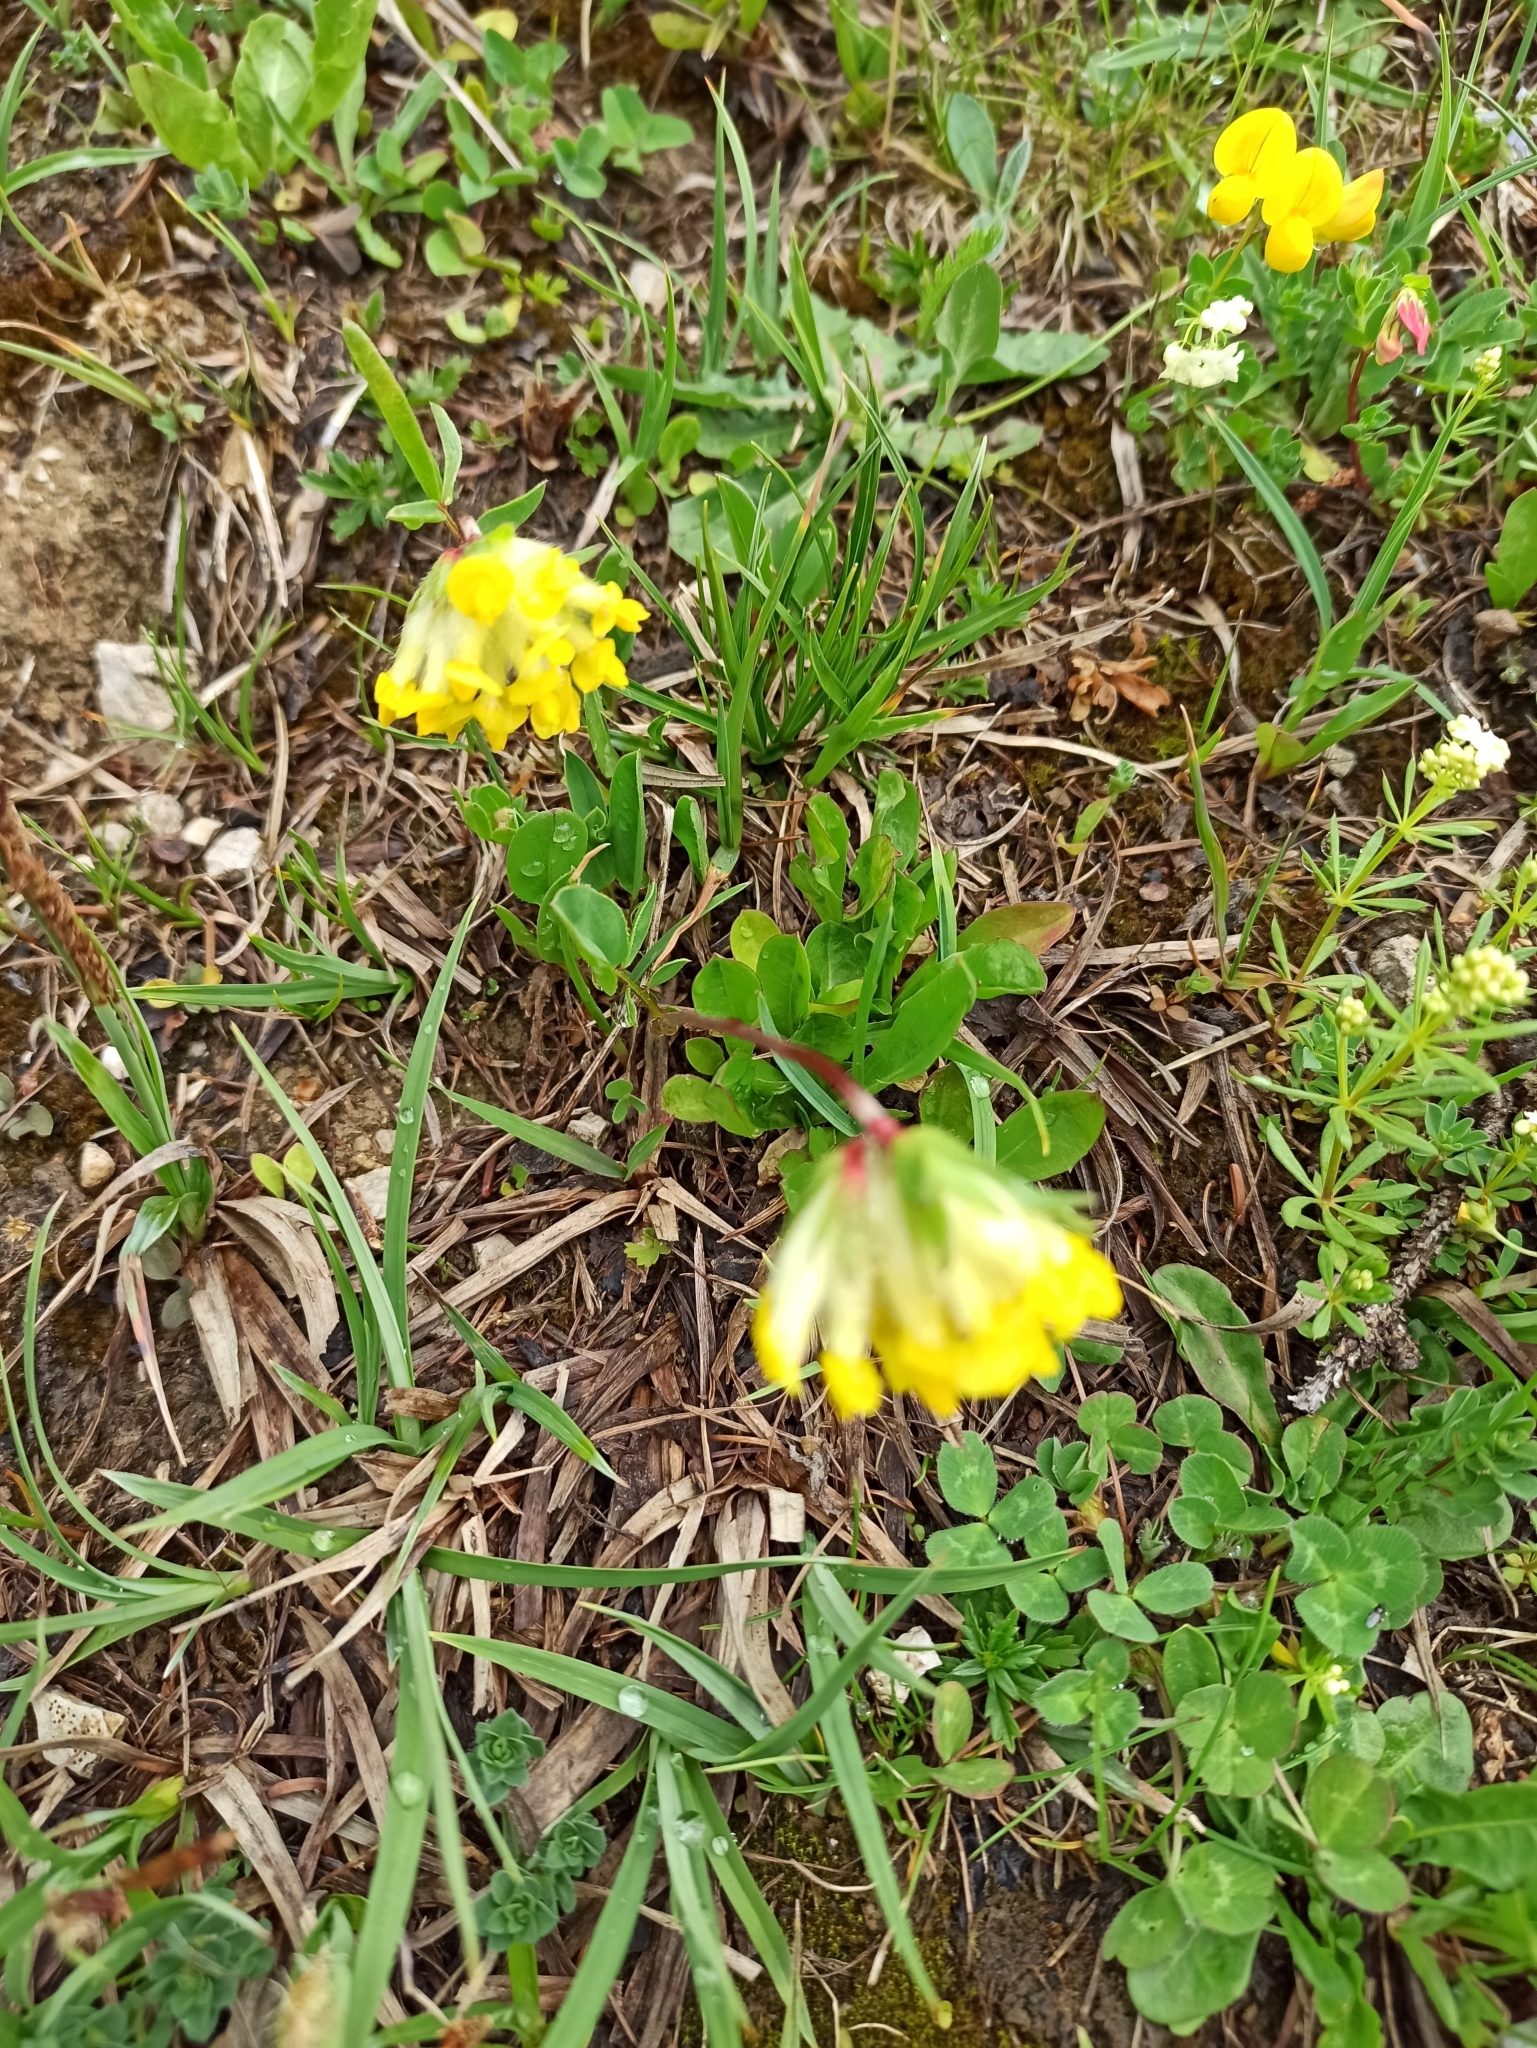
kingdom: Plantae
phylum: Tracheophyta
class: Magnoliopsida
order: Fabales
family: Fabaceae
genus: Anthyllis
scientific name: Anthyllis vulneraria
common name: Kidney vetch
